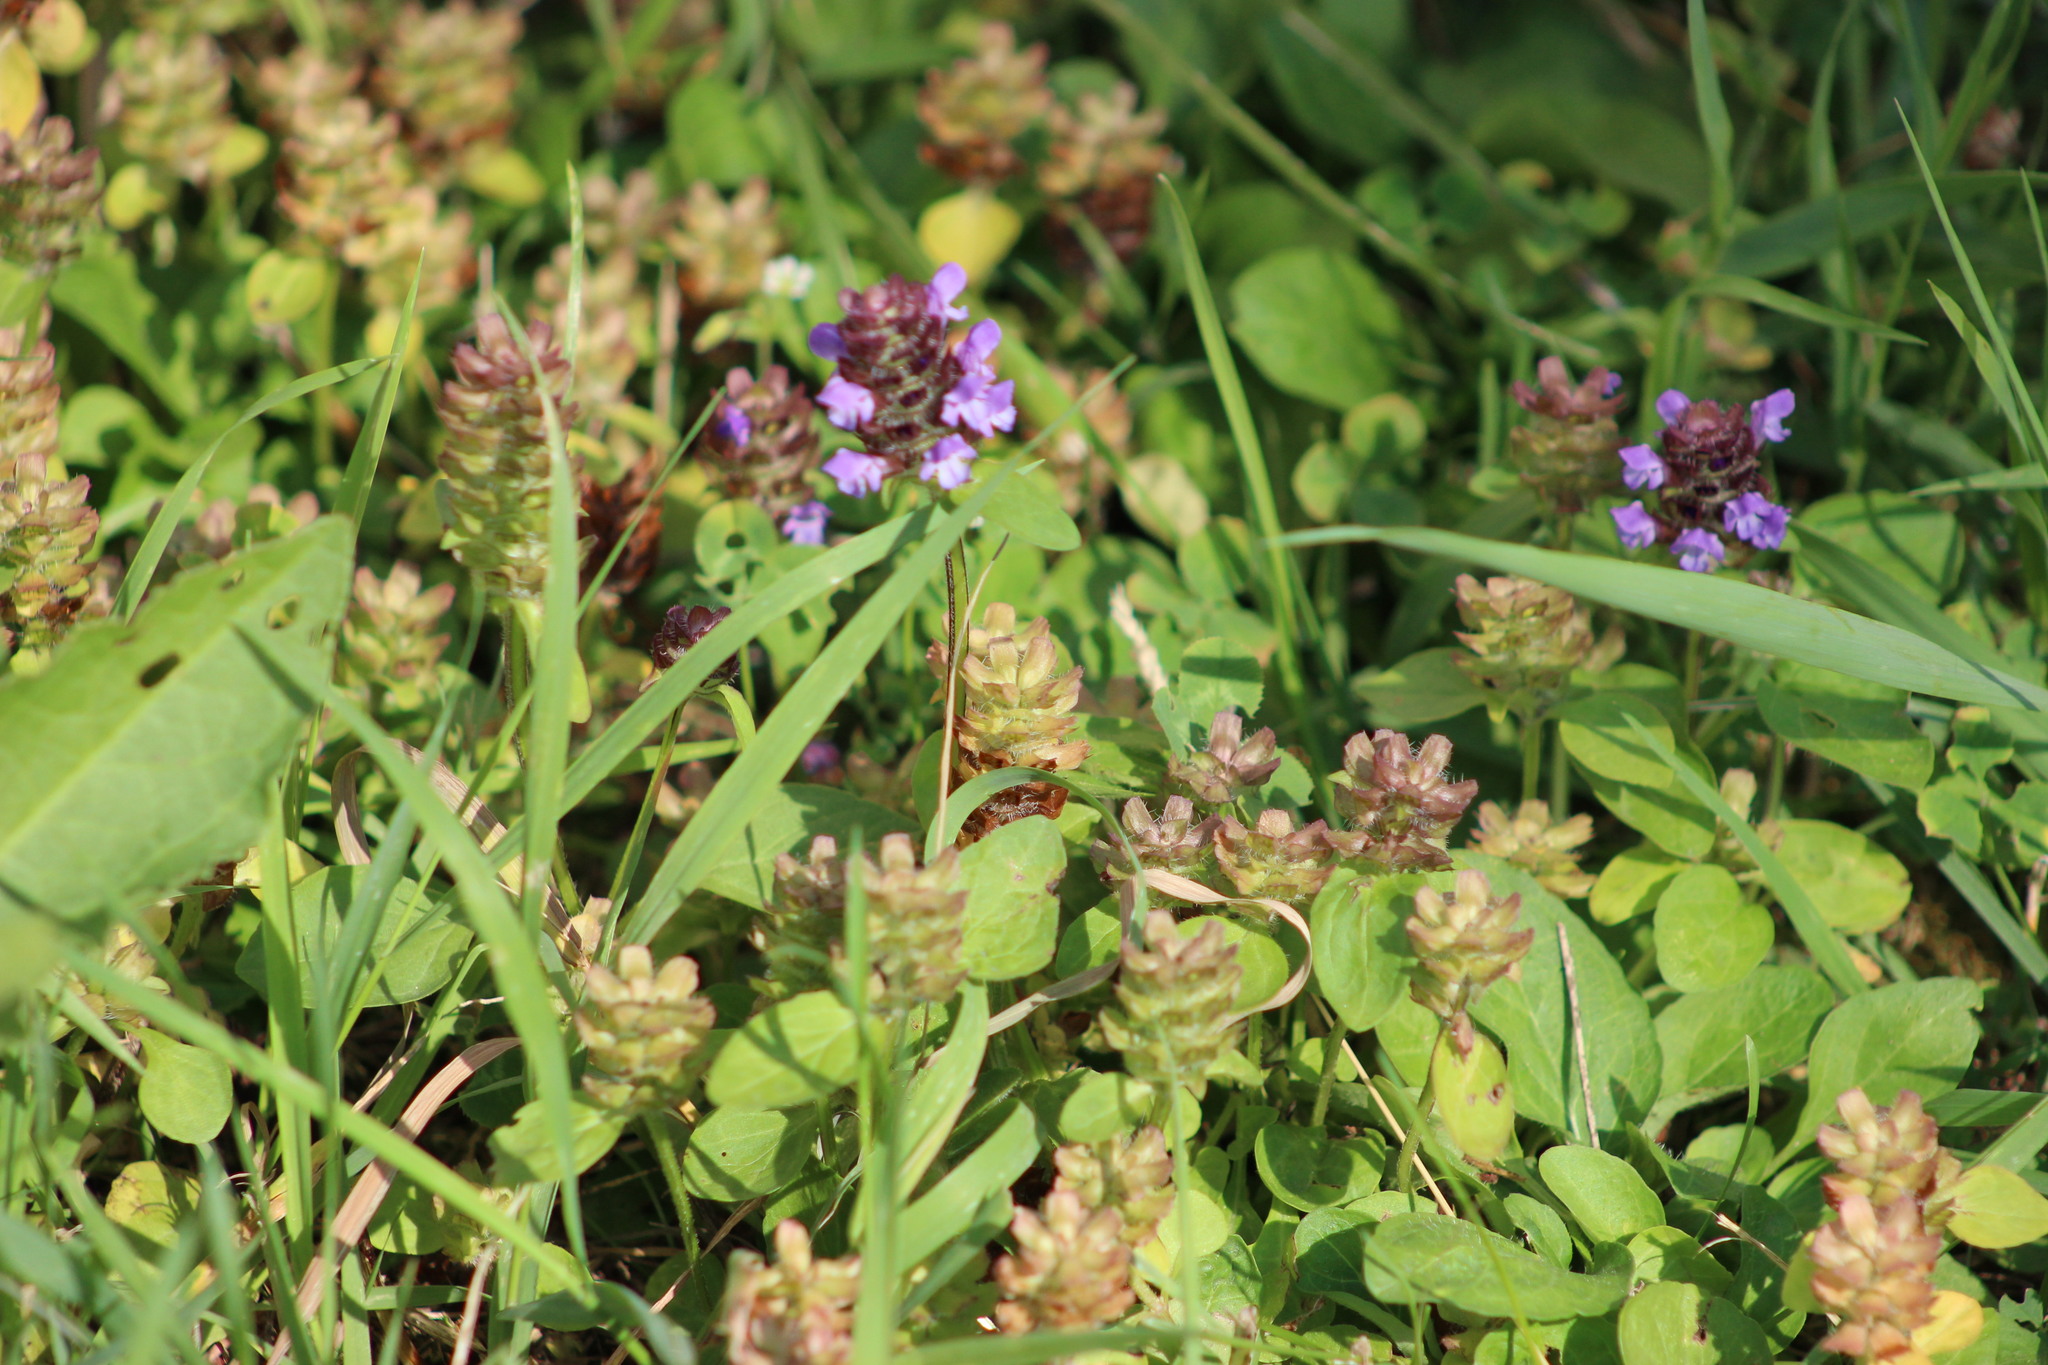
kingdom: Plantae
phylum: Tracheophyta
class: Magnoliopsida
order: Lamiales
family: Lamiaceae
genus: Prunella
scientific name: Prunella vulgaris
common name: Heal-all
